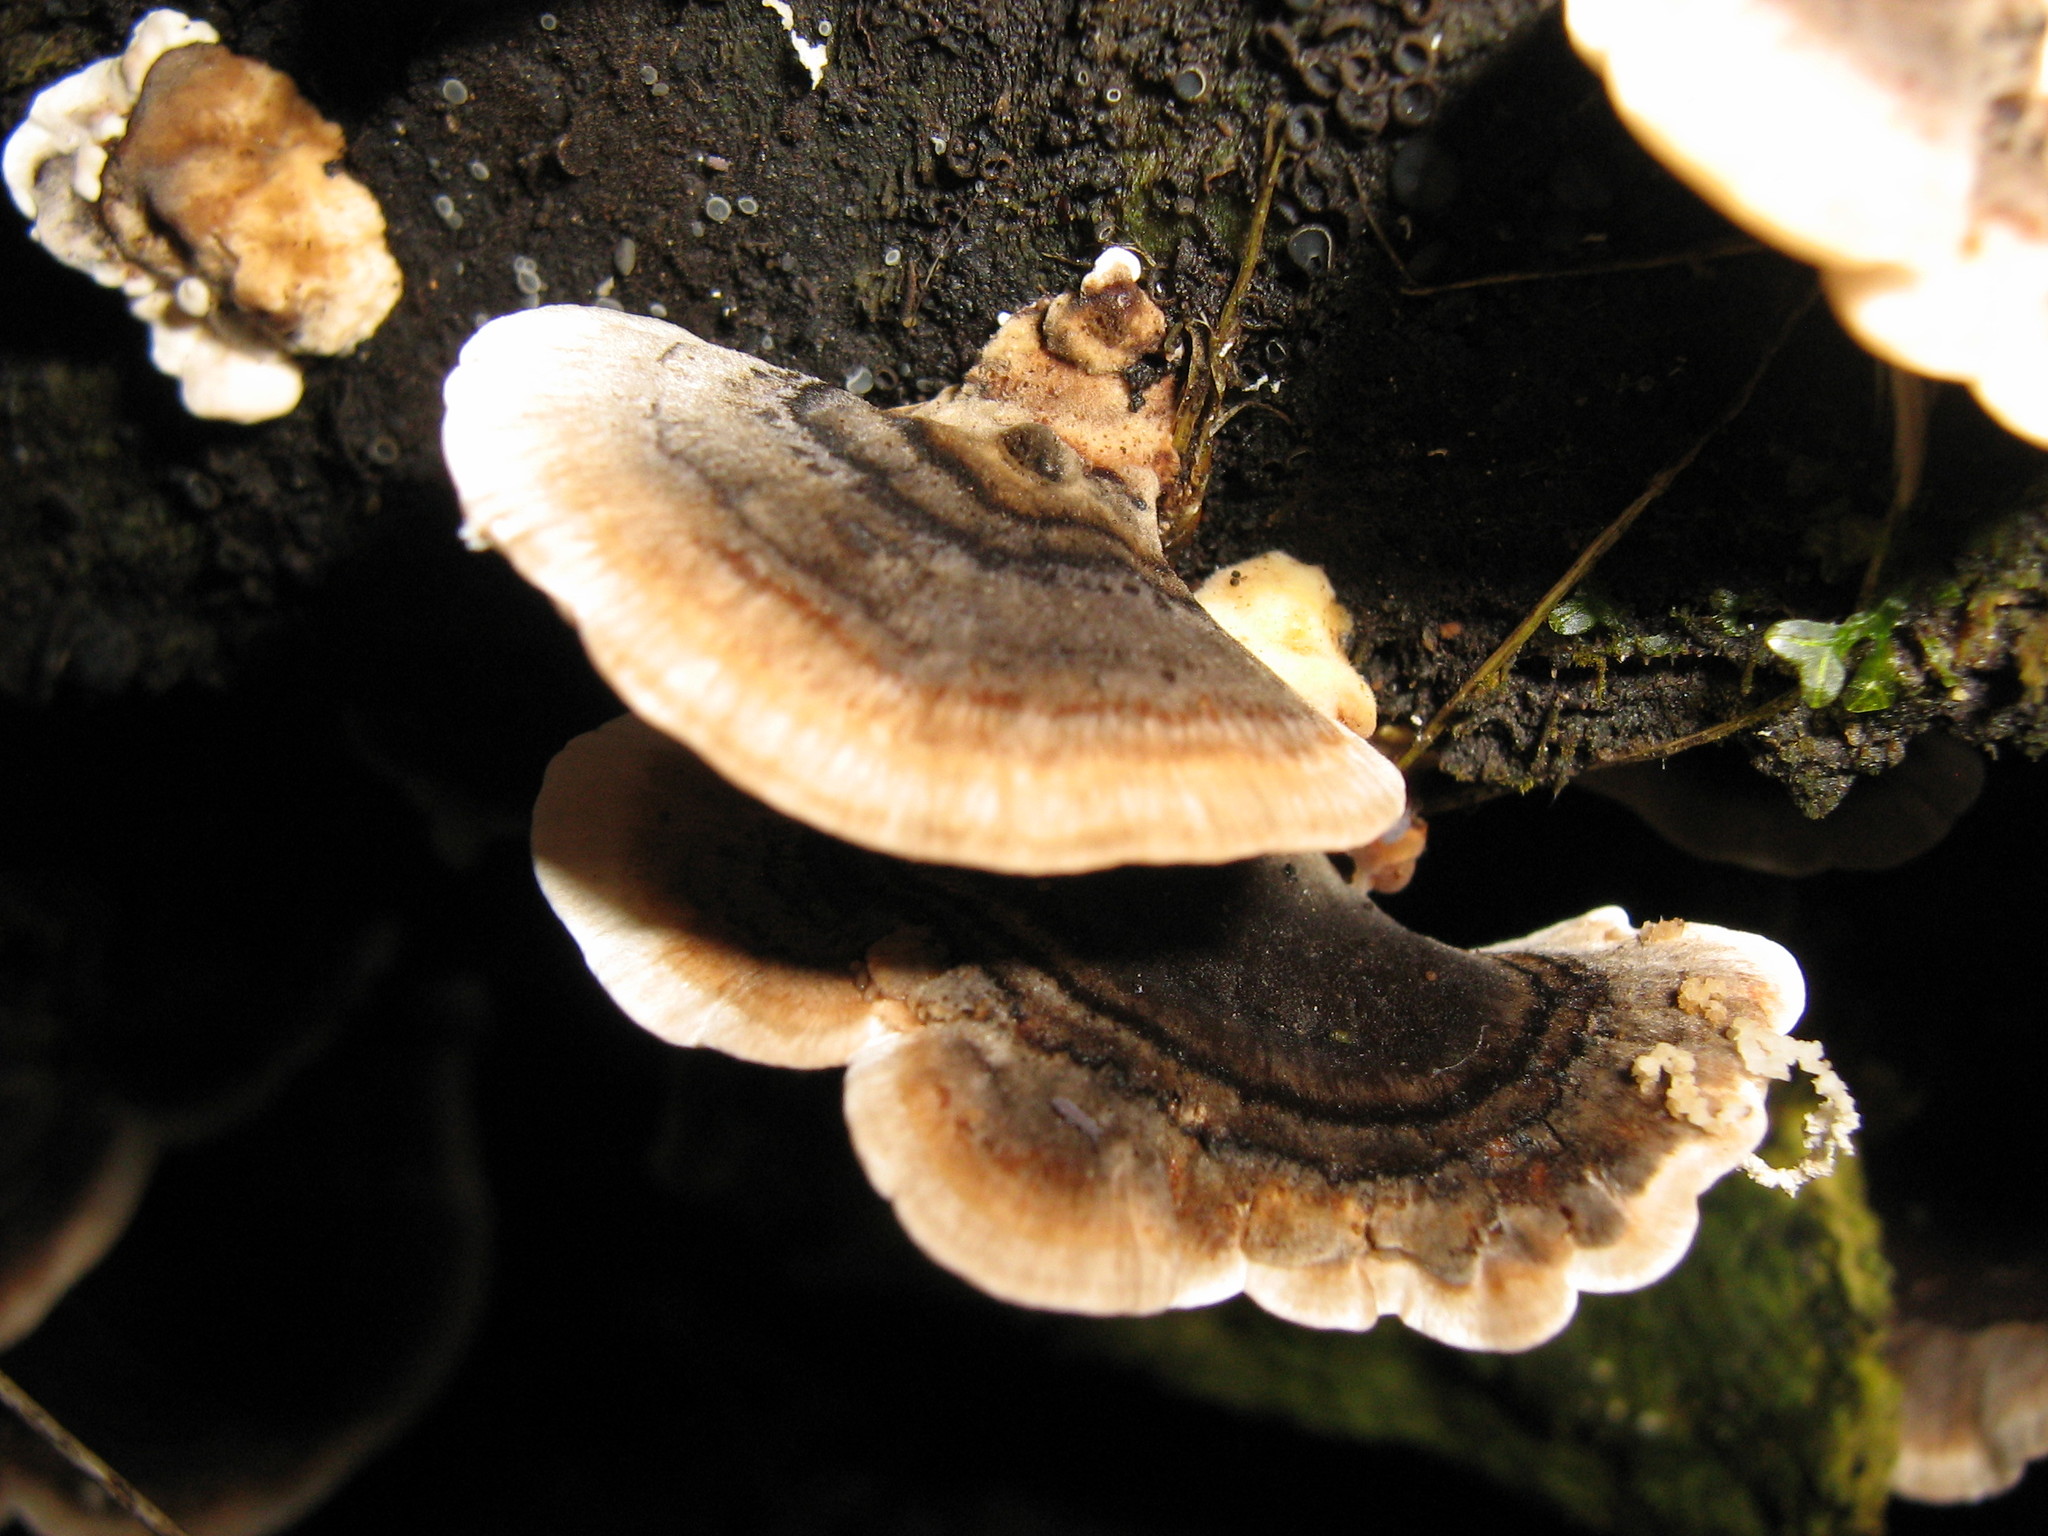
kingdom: Fungi
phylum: Basidiomycota
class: Agaricomycetes
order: Polyporales
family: Polyporaceae
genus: Trametes
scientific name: Trametes versicolor
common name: Turkeytail
